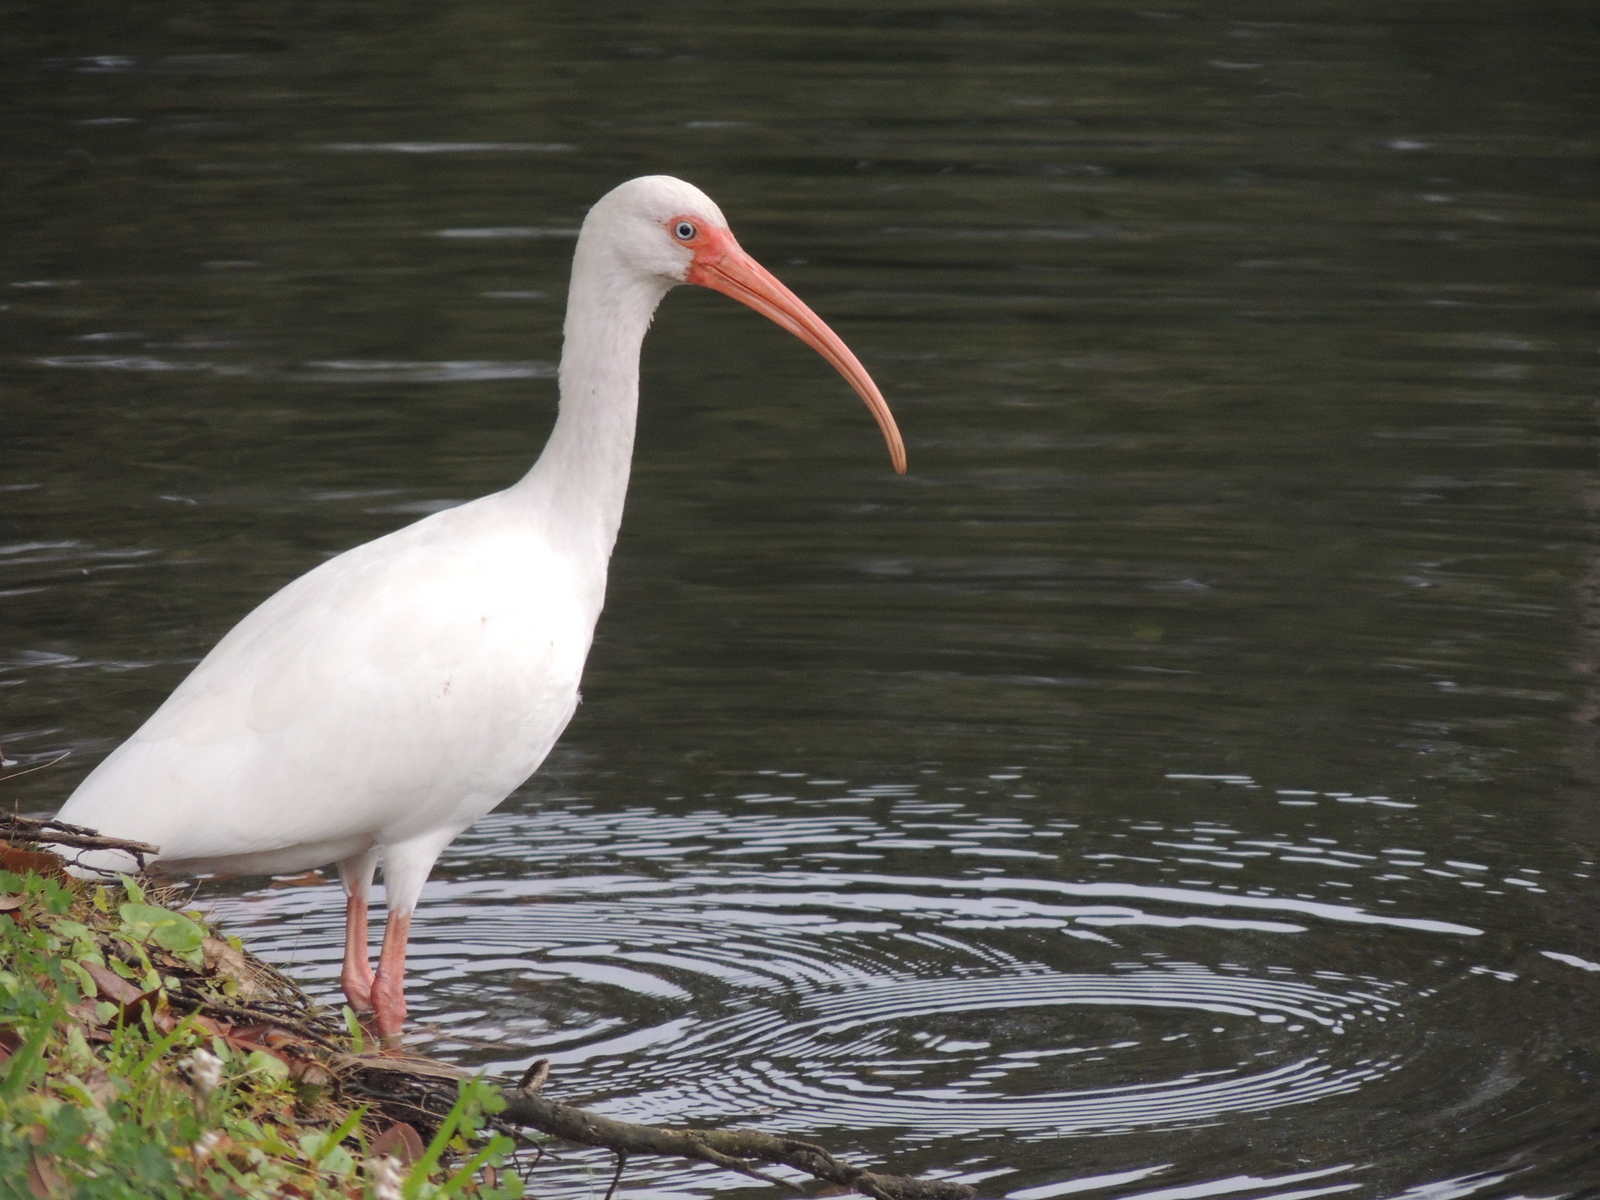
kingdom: Animalia
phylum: Chordata
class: Aves
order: Pelecaniformes
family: Threskiornithidae
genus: Eudocimus
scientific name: Eudocimus albus
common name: White ibis
